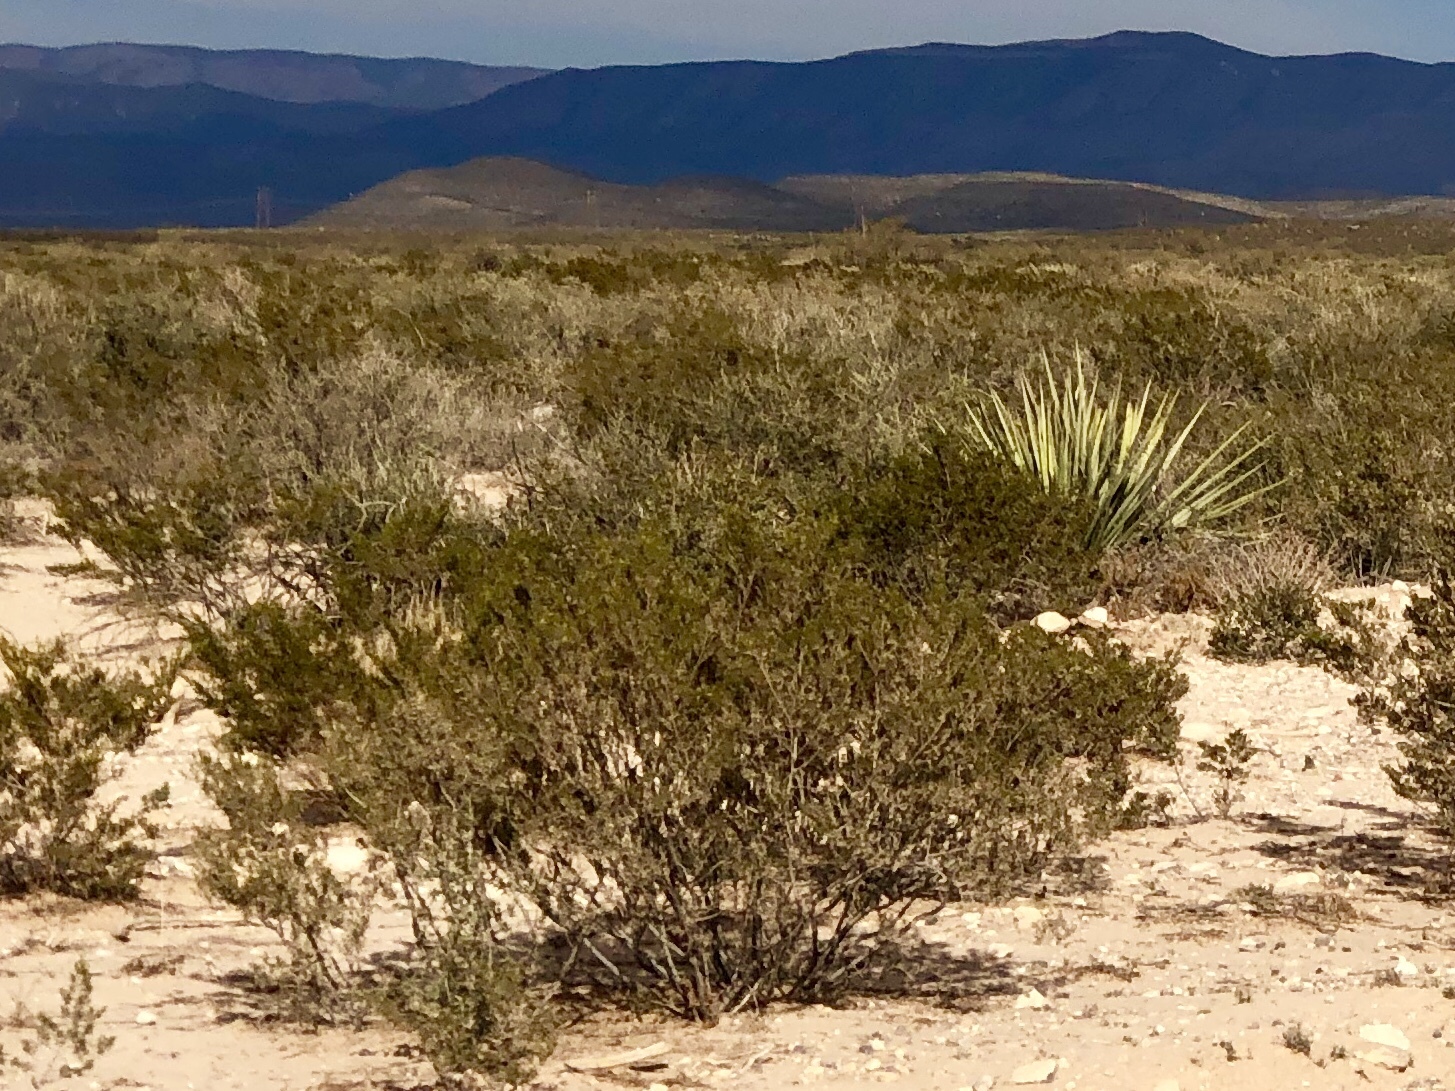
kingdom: Plantae
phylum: Tracheophyta
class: Magnoliopsida
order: Zygophyllales
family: Zygophyllaceae
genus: Larrea
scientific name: Larrea tridentata
